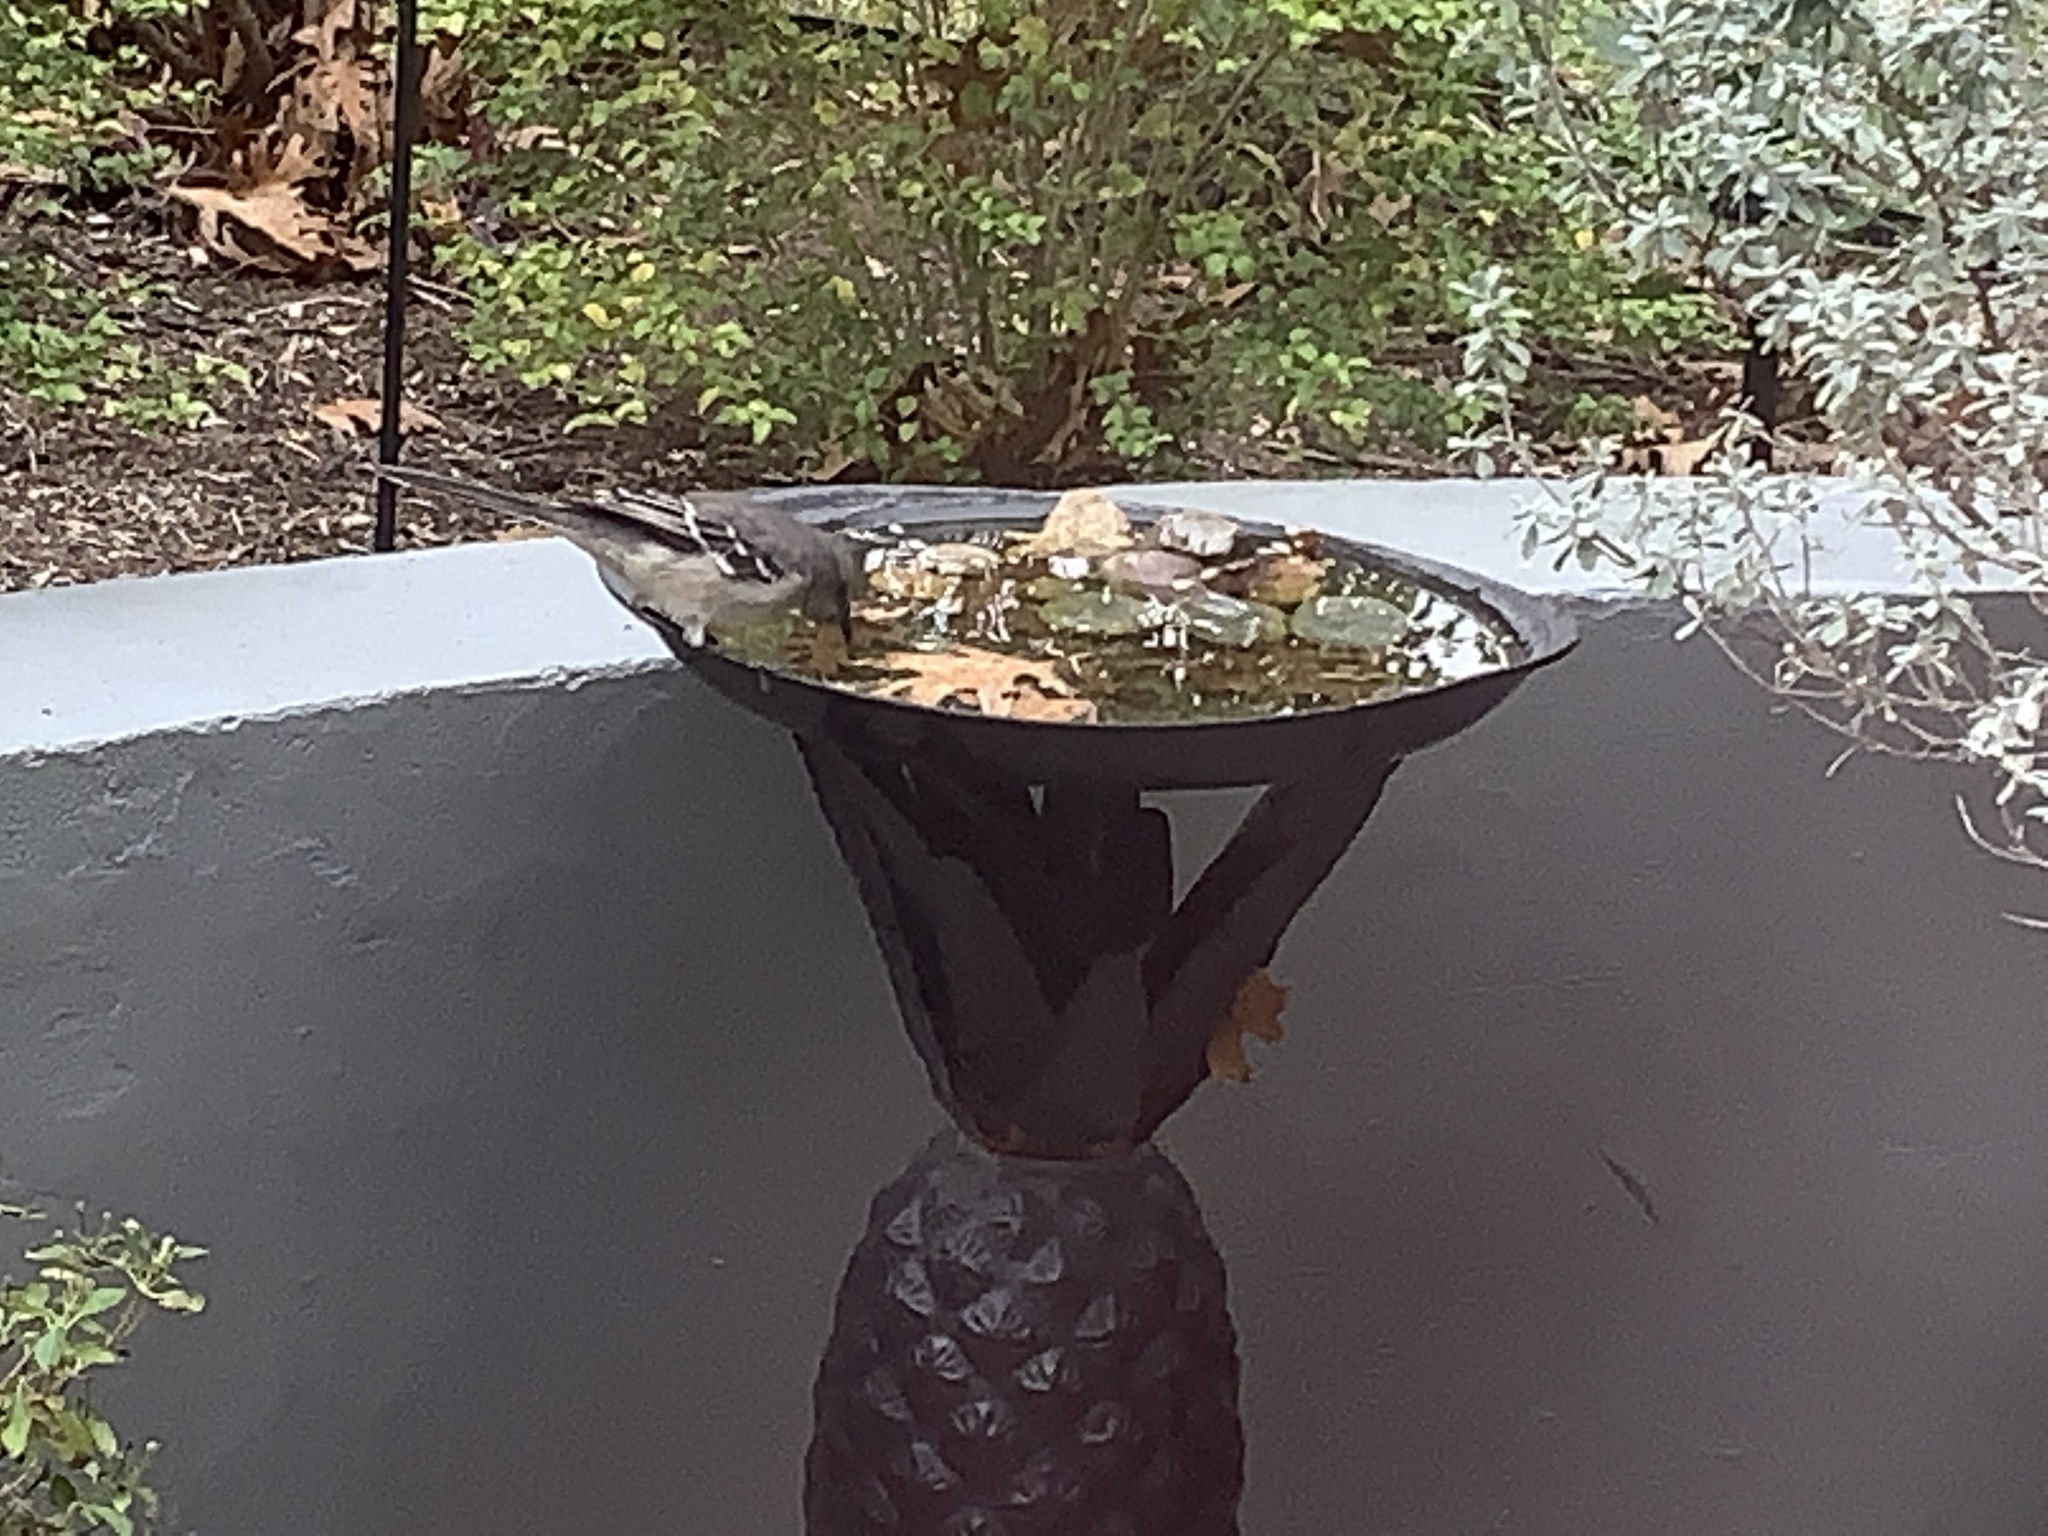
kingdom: Animalia
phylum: Chordata
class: Aves
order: Passeriformes
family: Mimidae
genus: Mimus
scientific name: Mimus polyglottos
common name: Northern mockingbird
